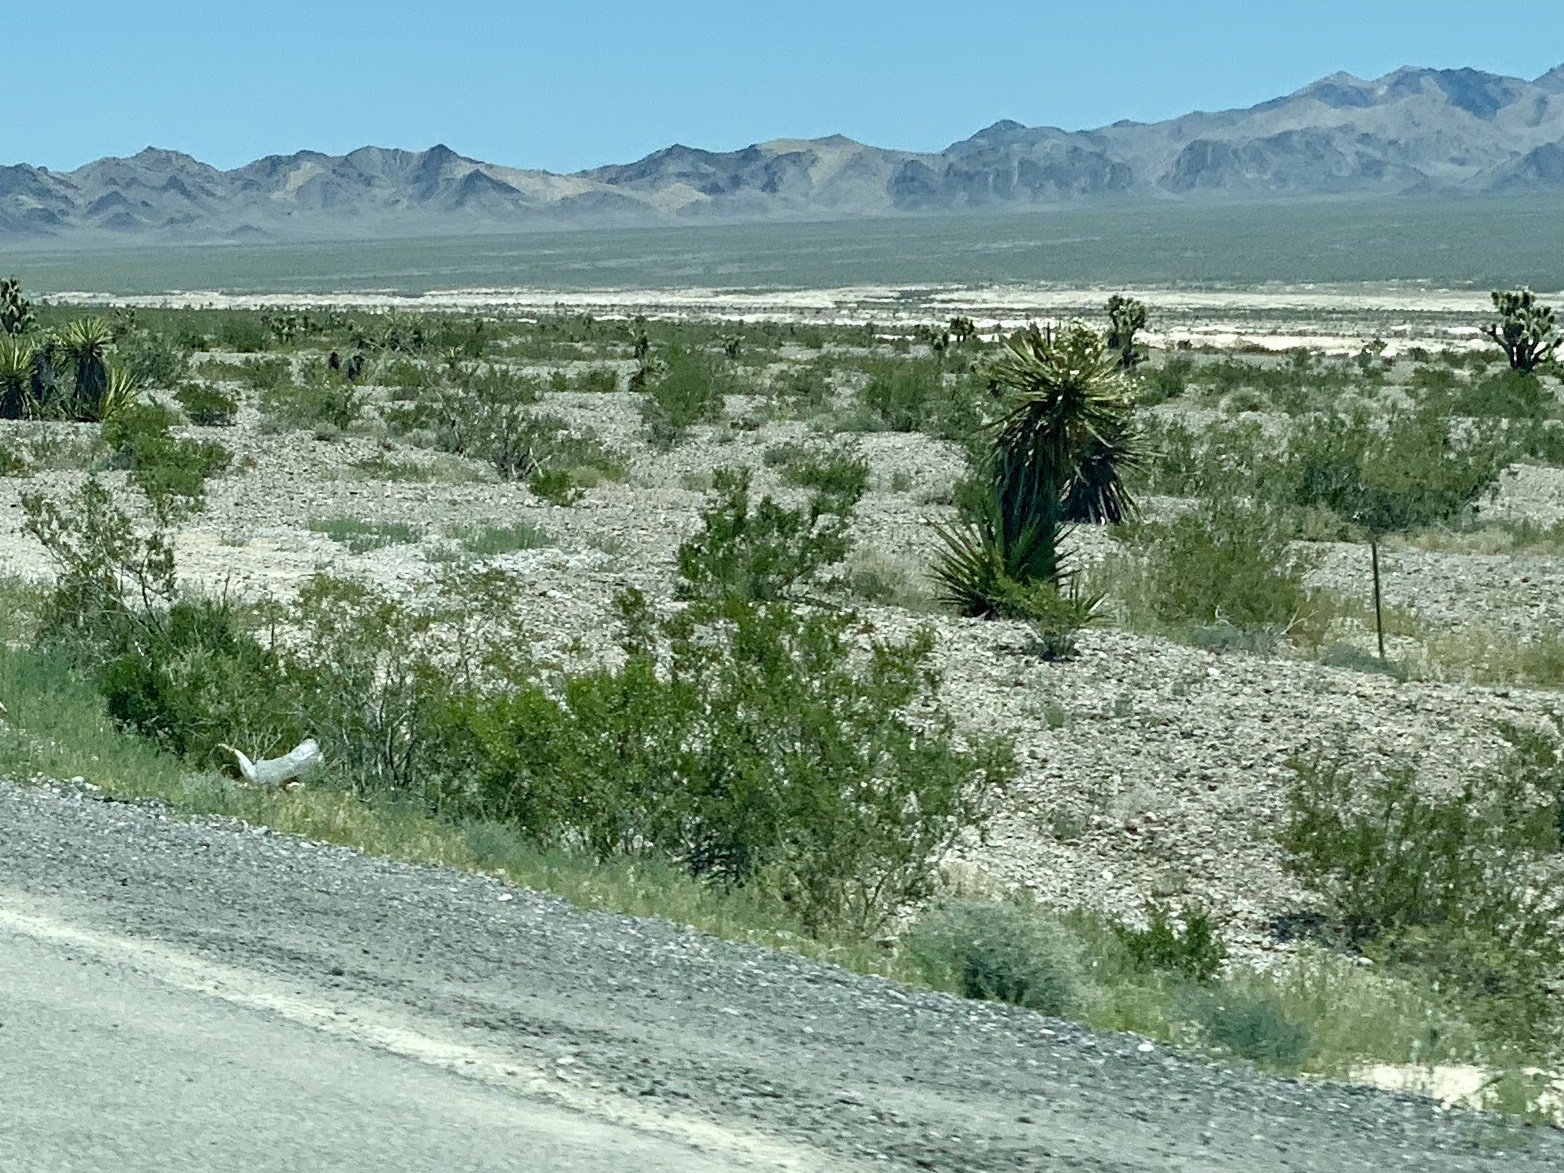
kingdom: Plantae
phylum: Tracheophyta
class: Magnoliopsida
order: Zygophyllales
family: Zygophyllaceae
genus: Larrea
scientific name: Larrea tridentata
